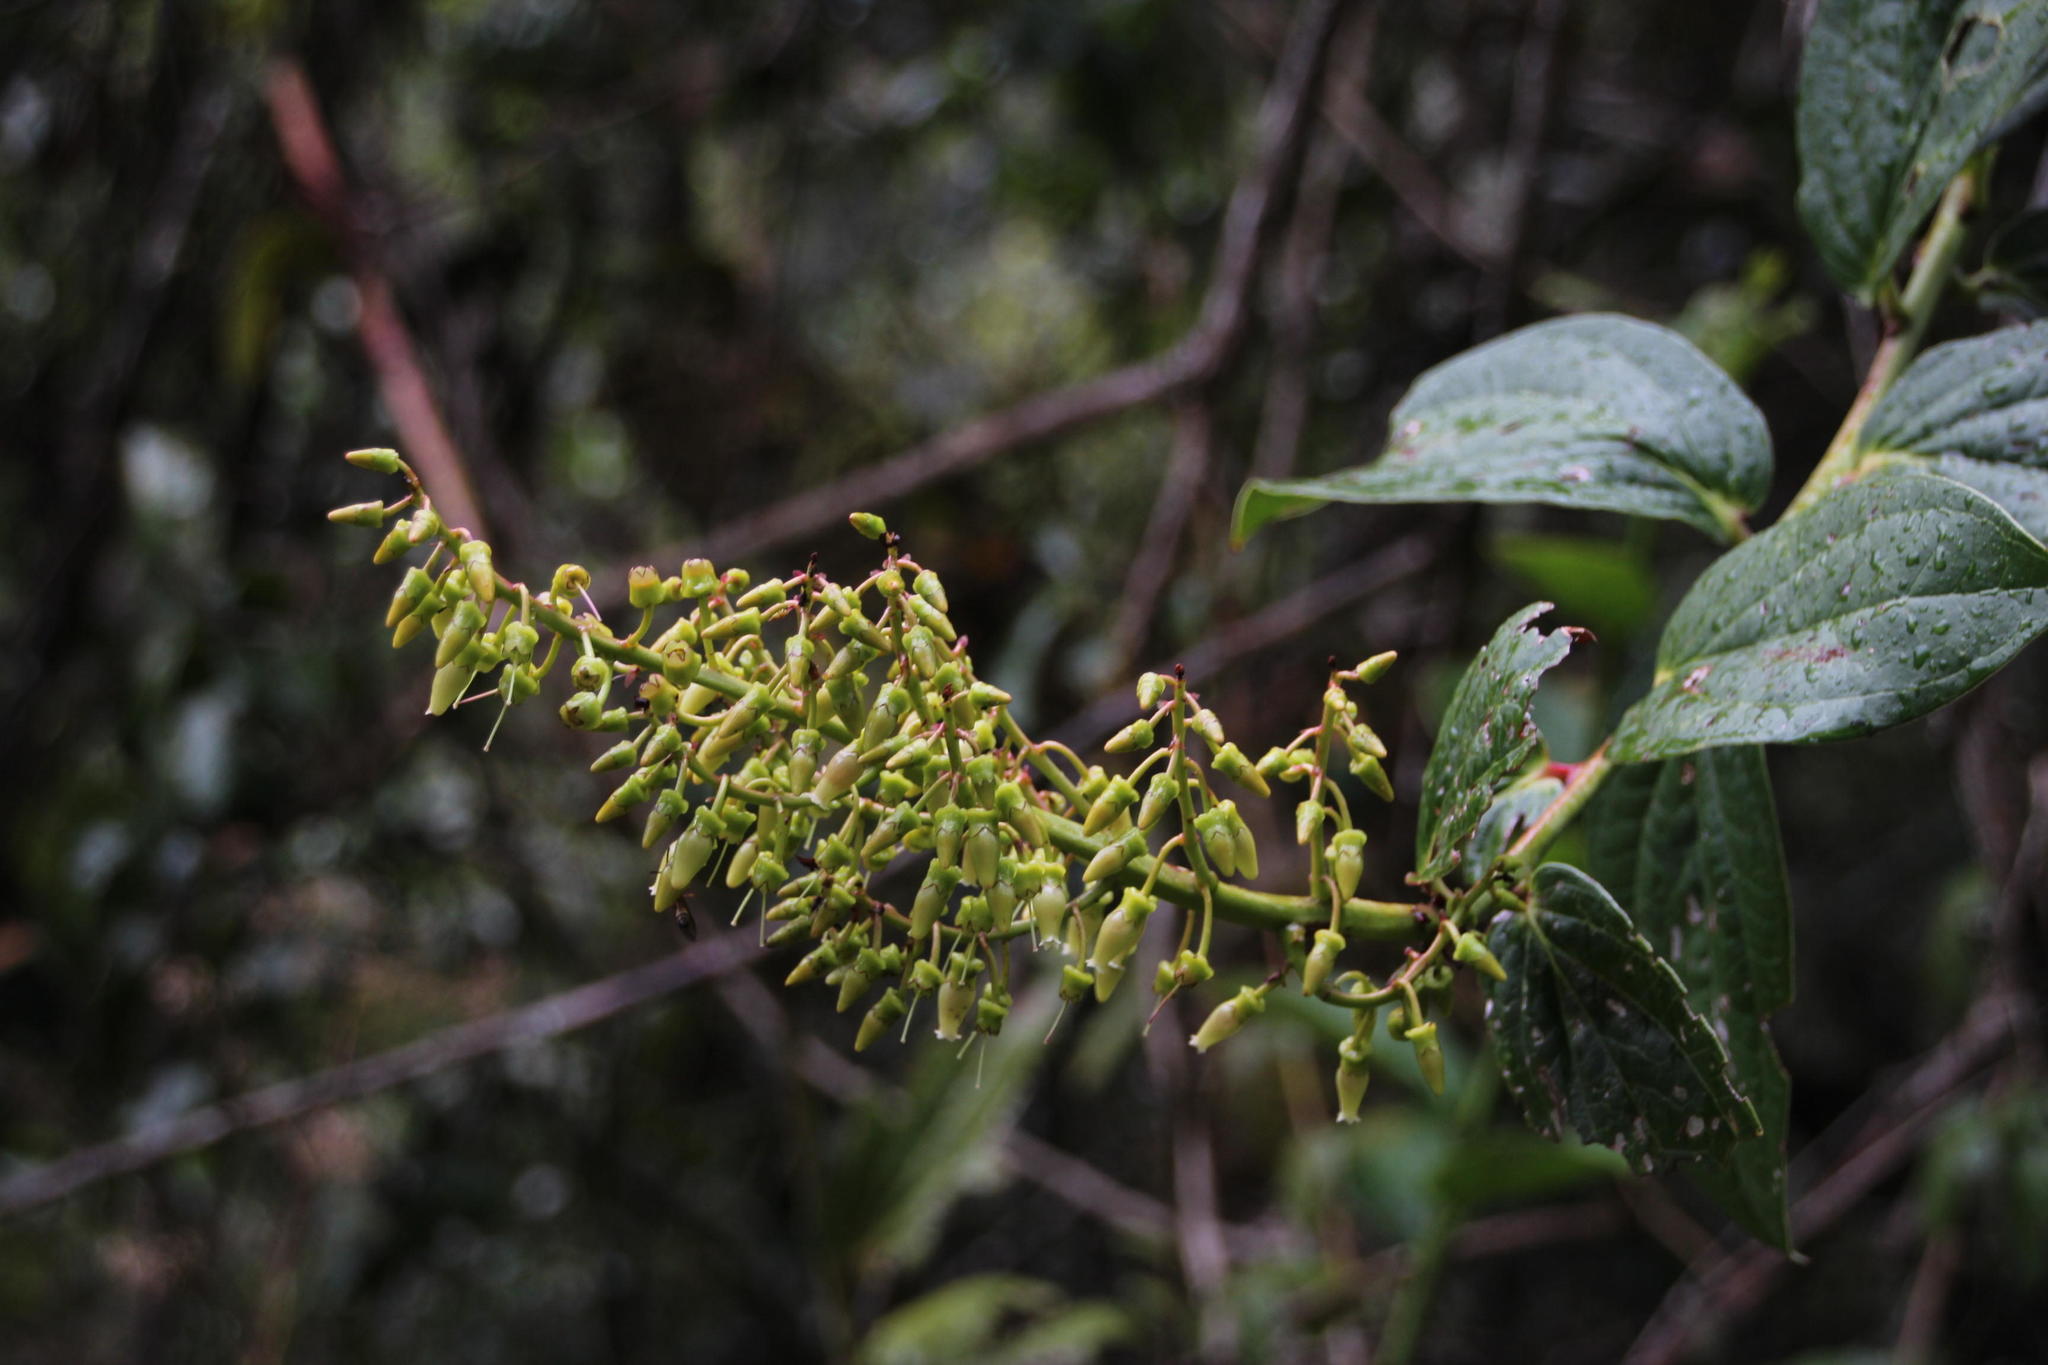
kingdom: Plantae
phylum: Tracheophyta
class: Magnoliopsida
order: Ericales
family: Ericaceae
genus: Cavendishia
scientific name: Cavendishia martii
